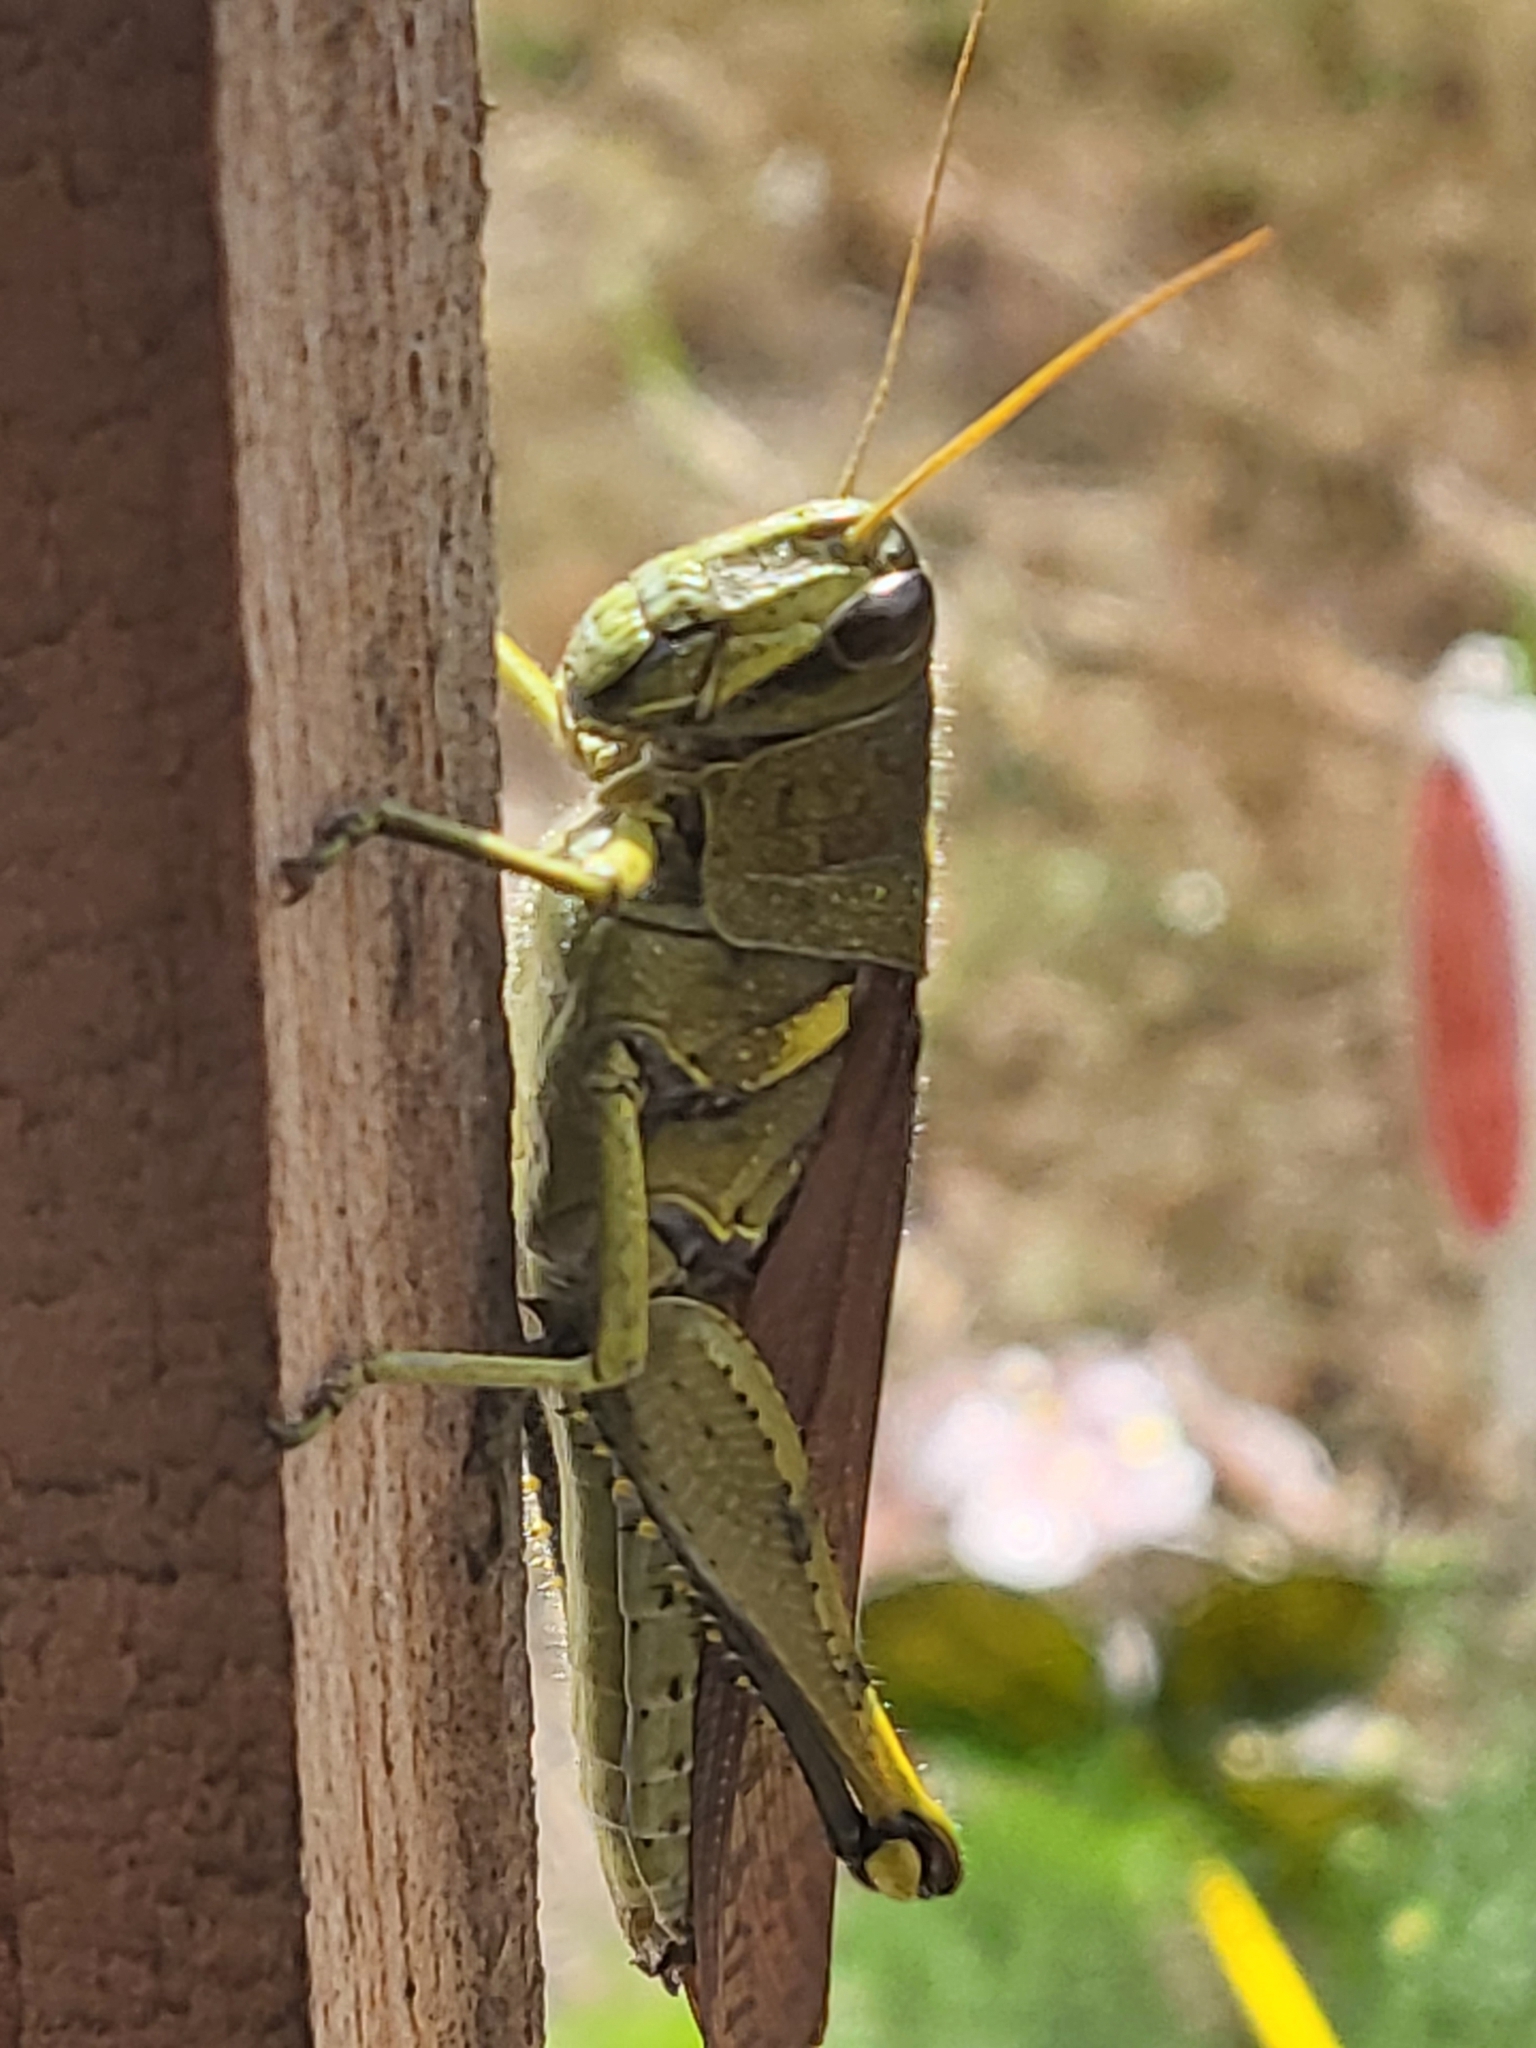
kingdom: Animalia
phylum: Arthropoda
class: Insecta
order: Orthoptera
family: Acrididae
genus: Schistocerca
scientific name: Schistocerca obscura
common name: Obscure bird grasshopper
